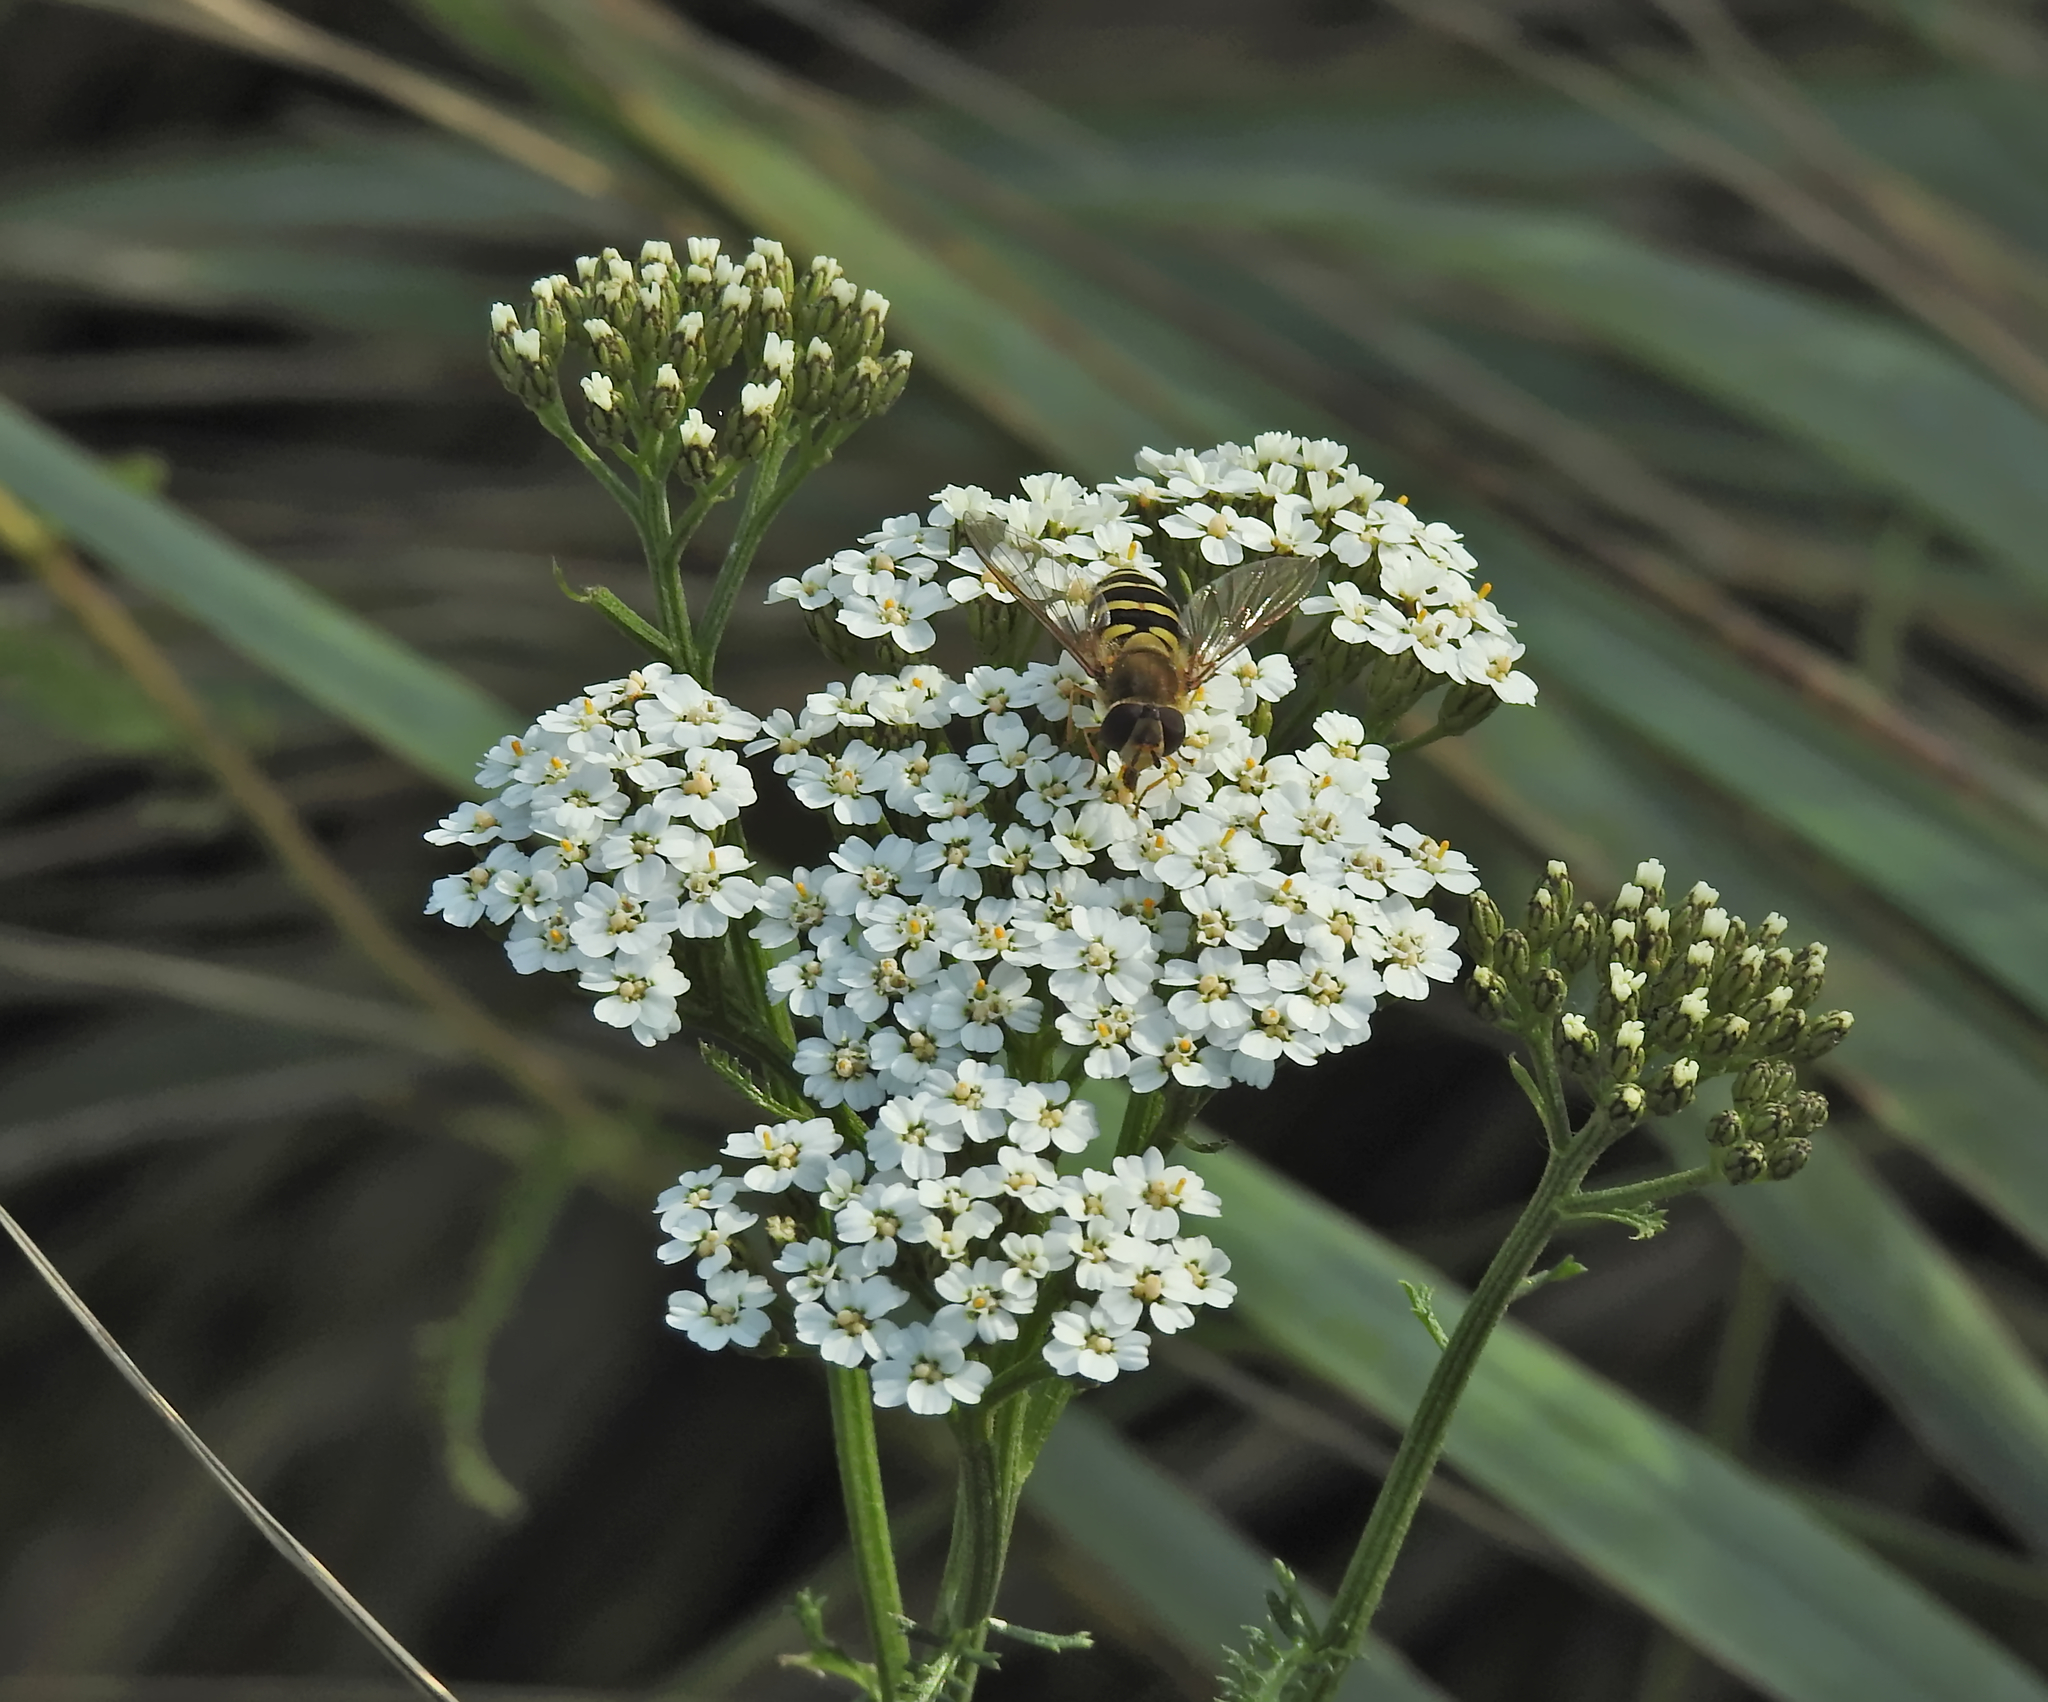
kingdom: Animalia
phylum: Arthropoda
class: Insecta
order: Diptera
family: Syrphidae
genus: Syrphus
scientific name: Syrphus
